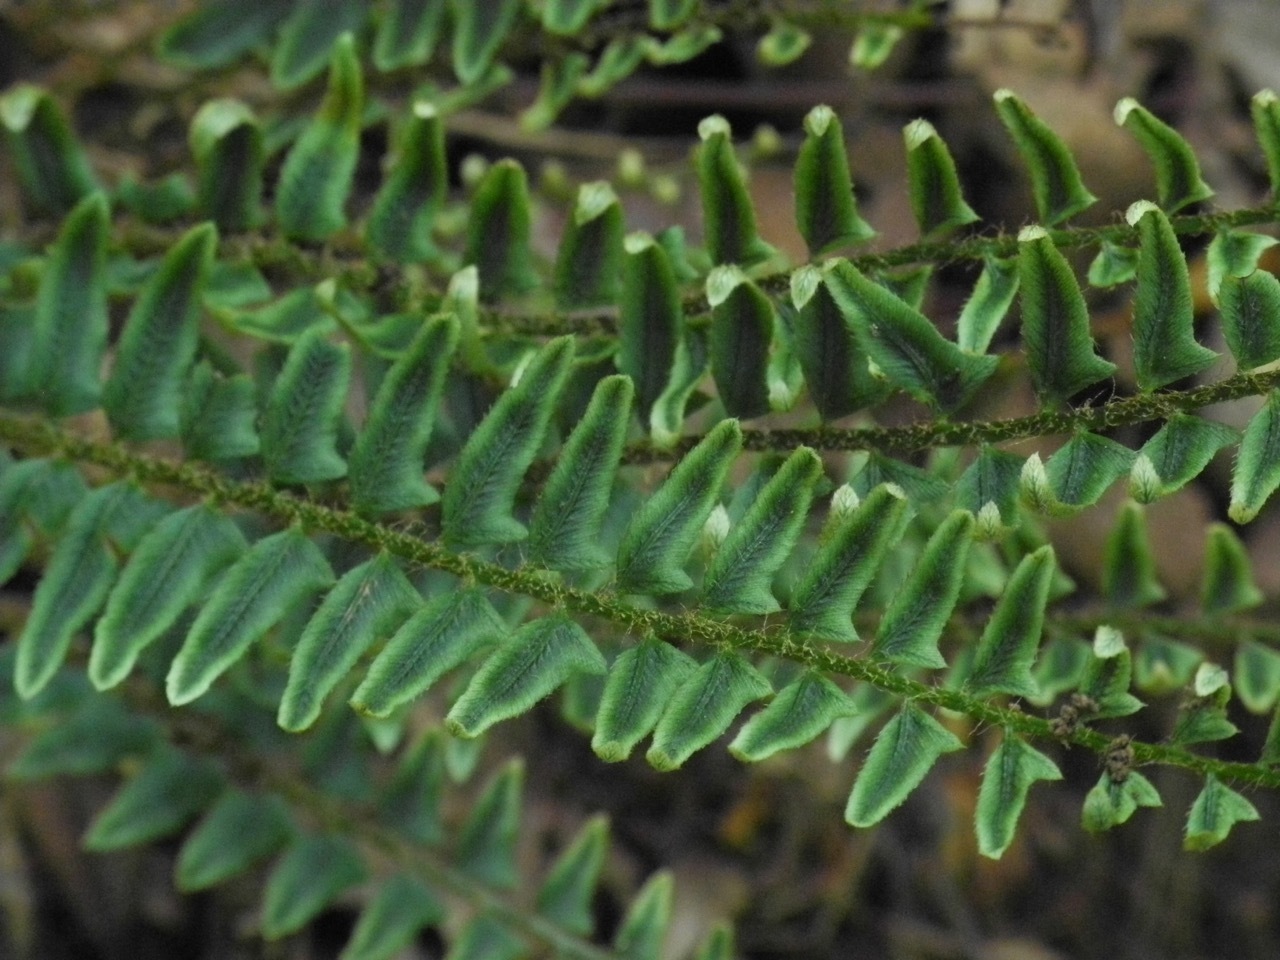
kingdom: Plantae
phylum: Tracheophyta
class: Polypodiopsida
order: Polypodiales
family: Dryopteridaceae
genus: Polystichum
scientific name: Polystichum acrostichoides
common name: Christmas fern
